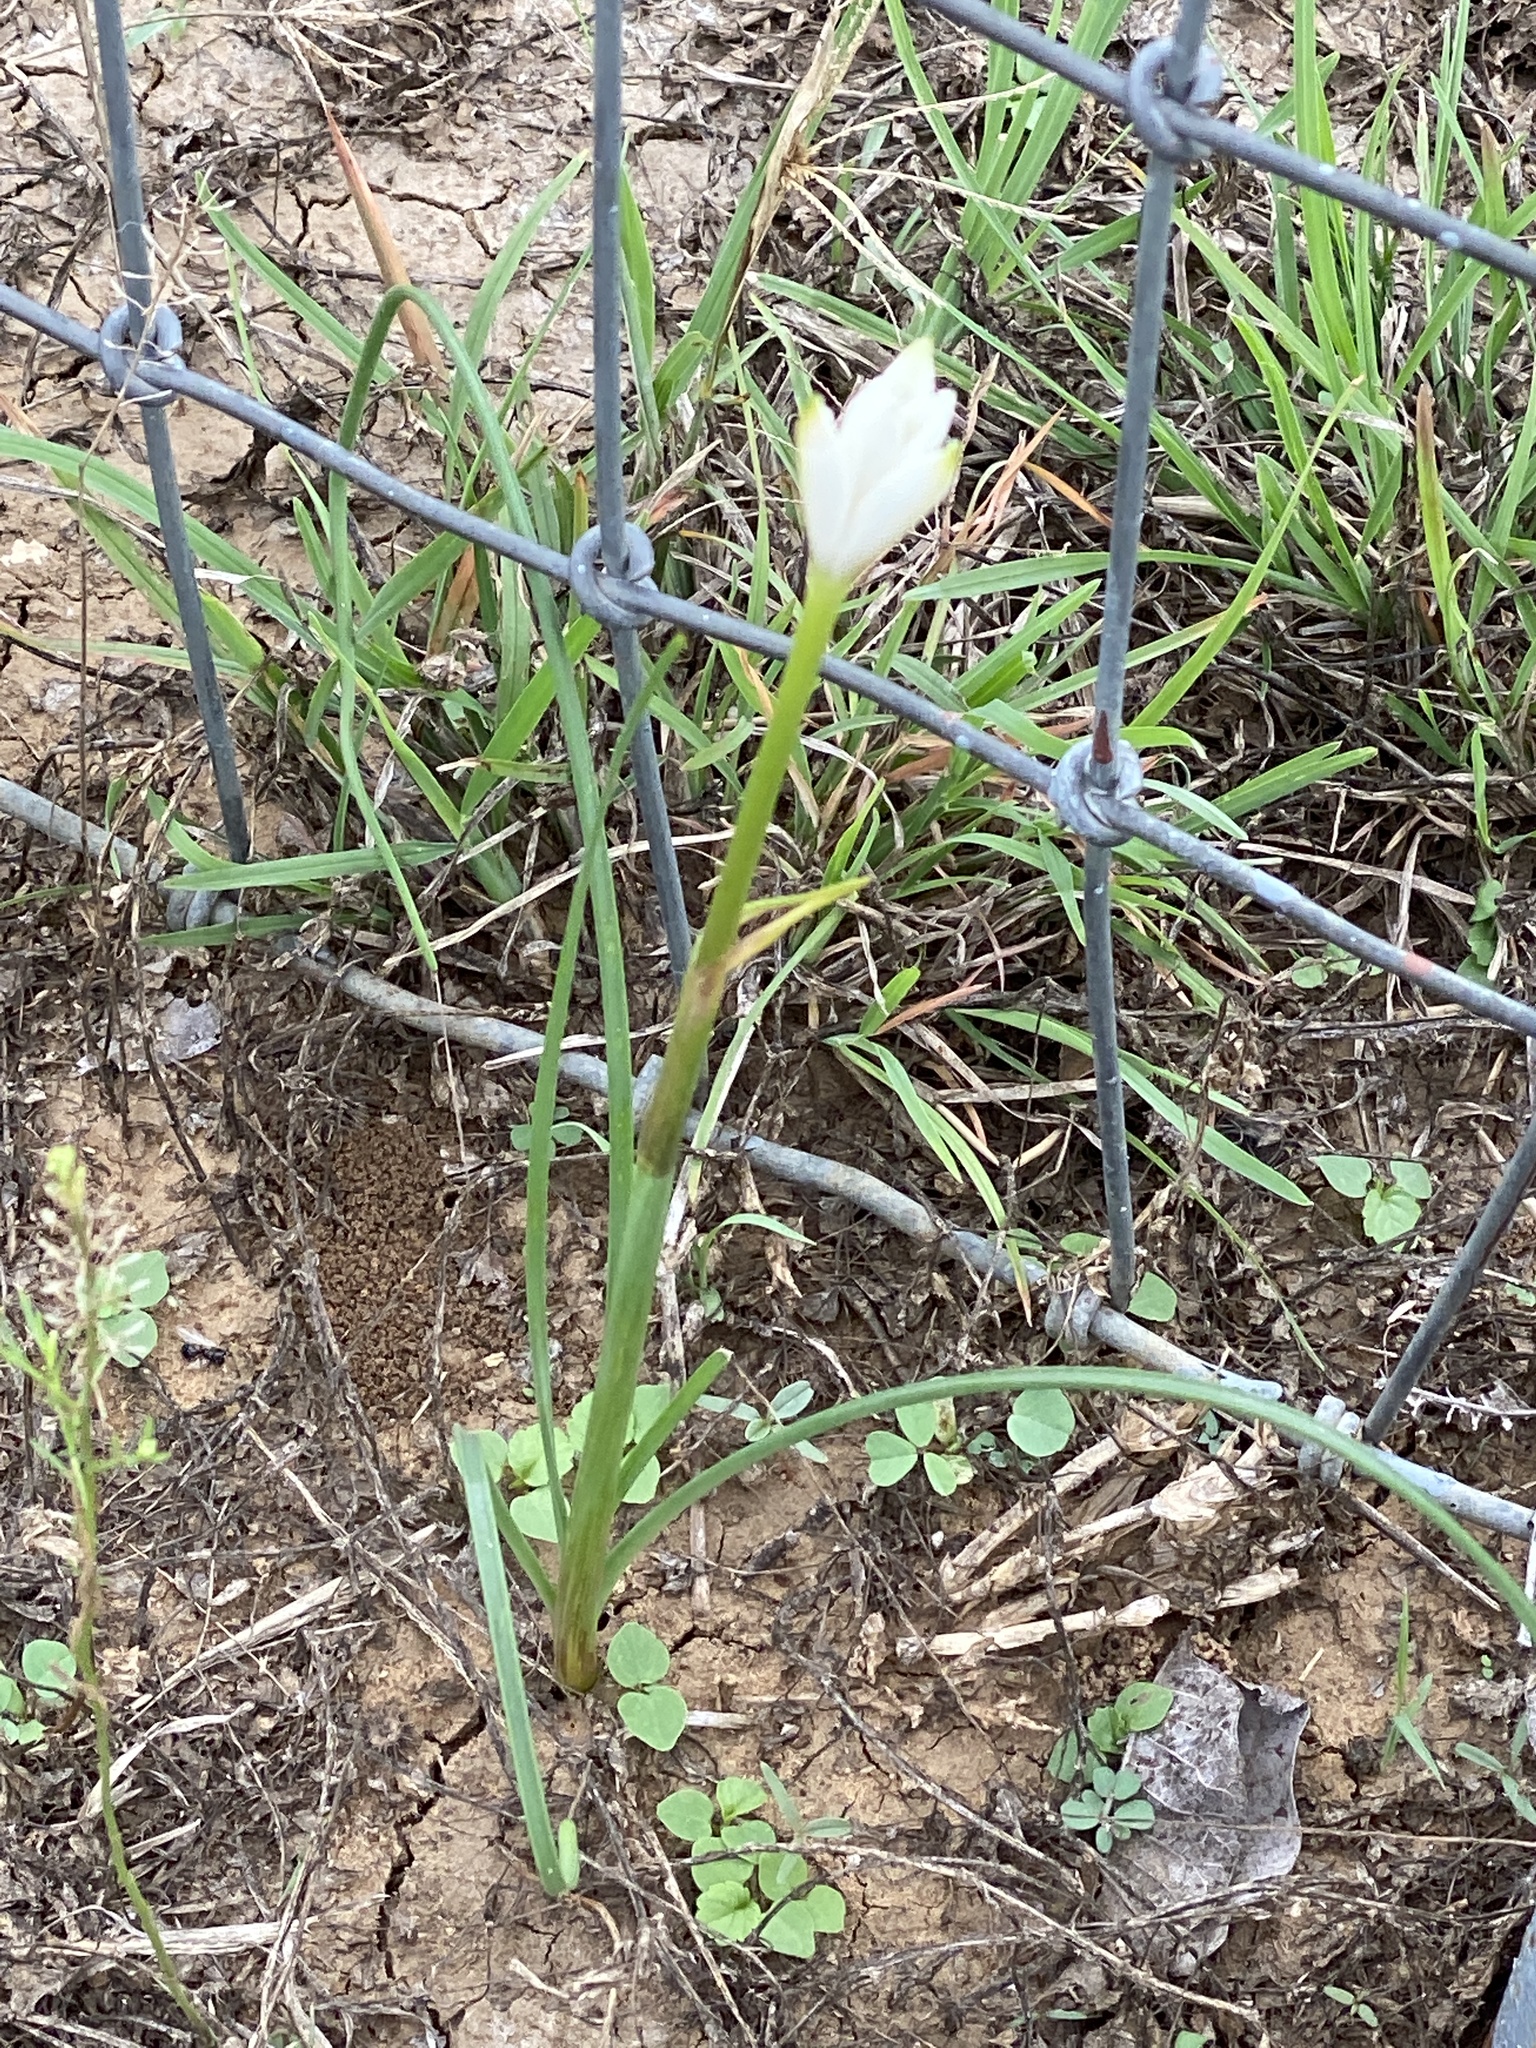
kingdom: Plantae
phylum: Tracheophyta
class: Liliopsida
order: Asparagales
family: Amaryllidaceae
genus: Zephyranthes
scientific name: Zephyranthes drummondii
